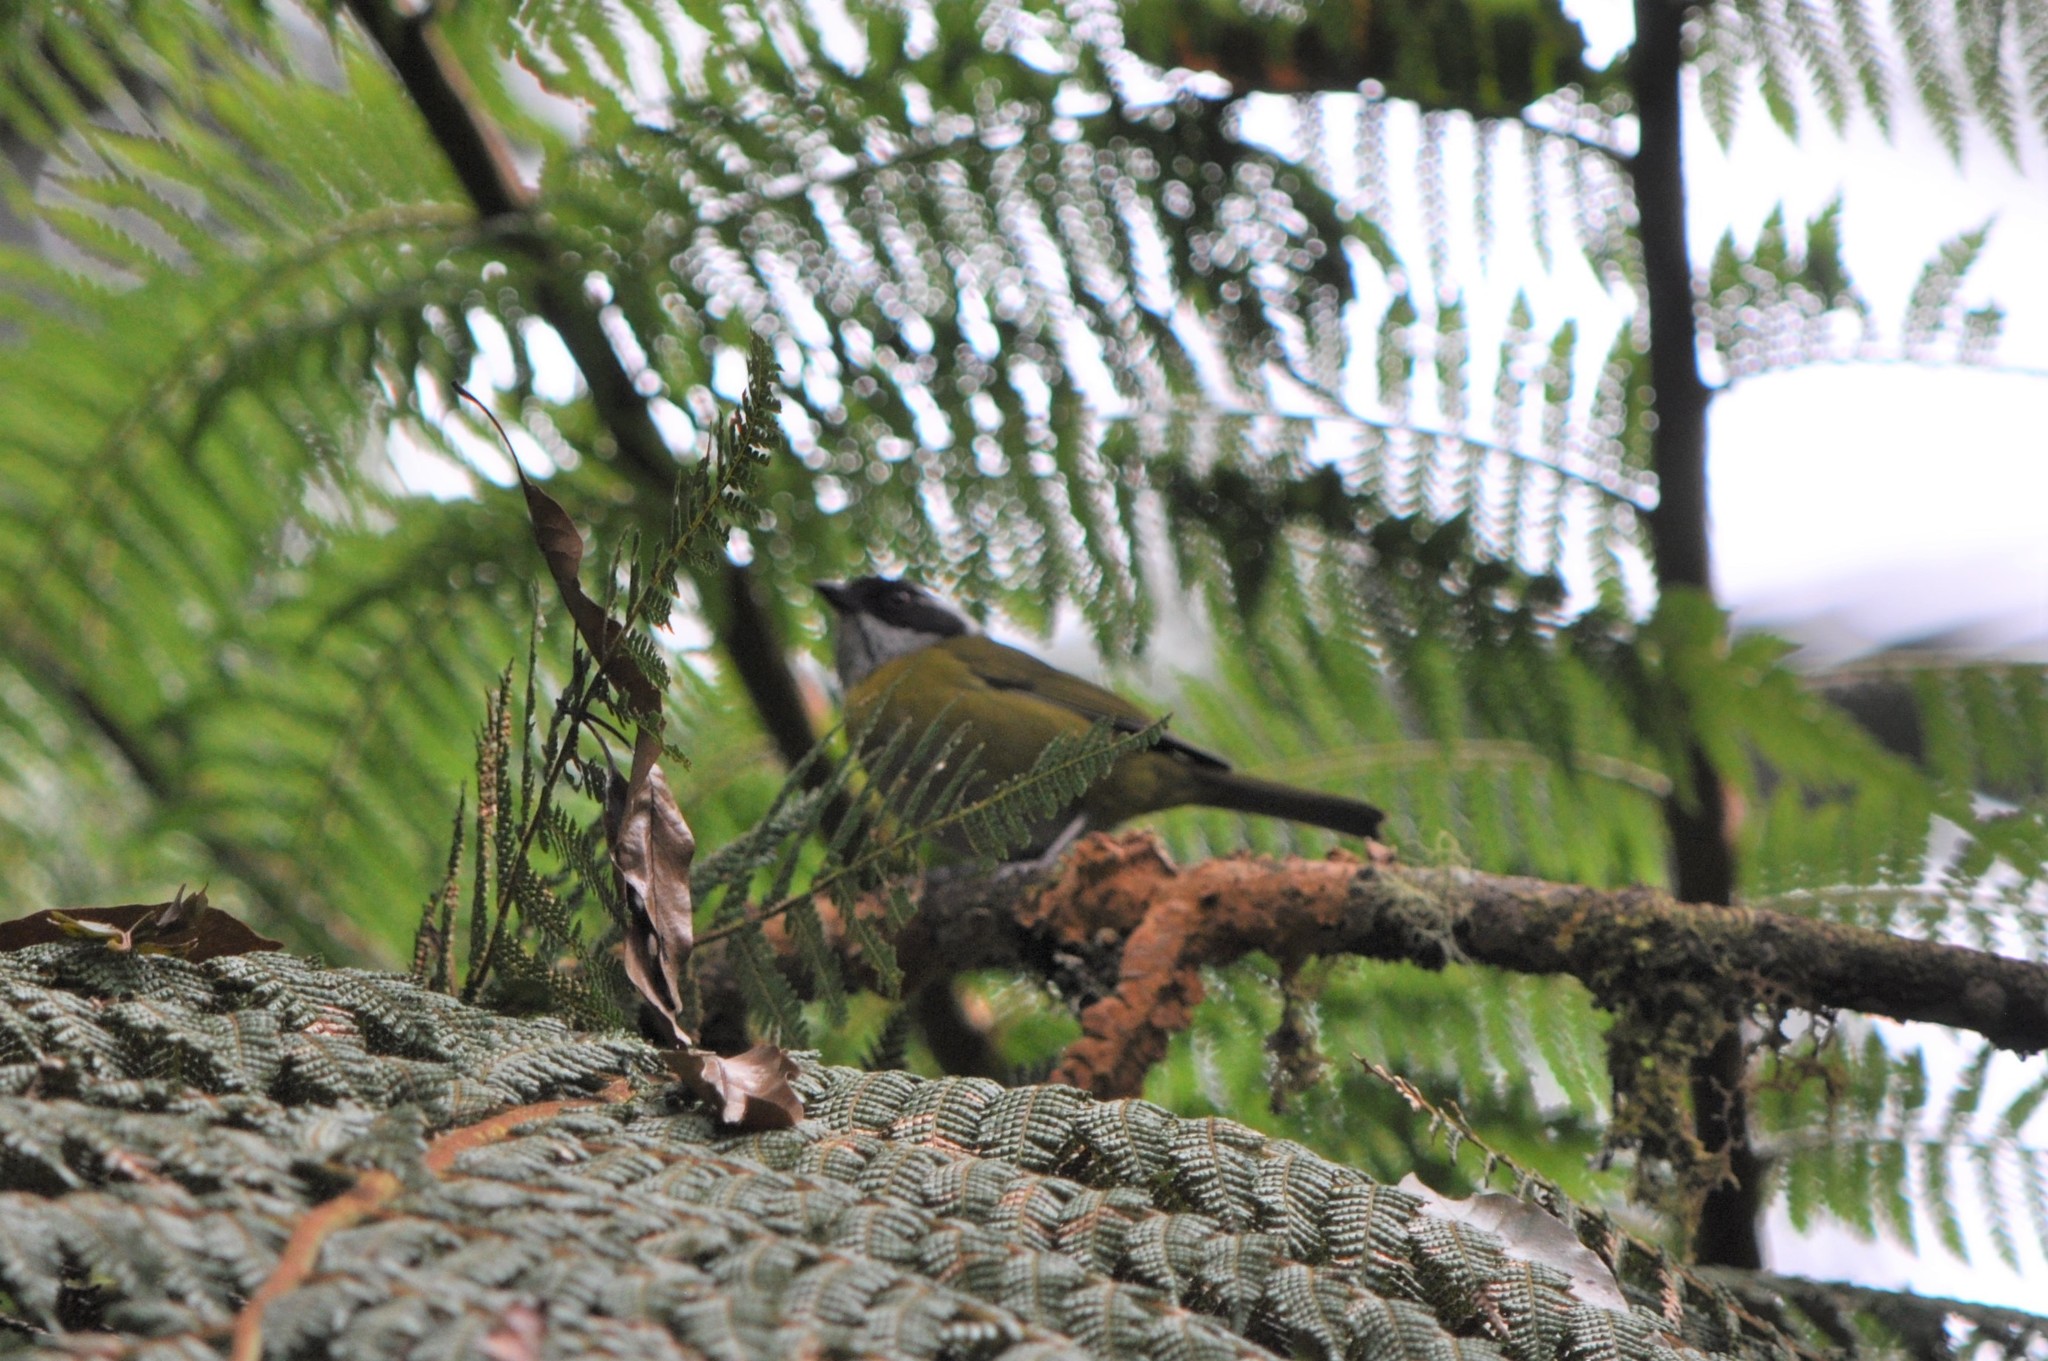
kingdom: Animalia
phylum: Chordata
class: Aves
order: Passeriformes
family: Passerellidae
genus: Chlorospingus
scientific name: Chlorospingus pileatus
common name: Sooty-capped bush-tanager
